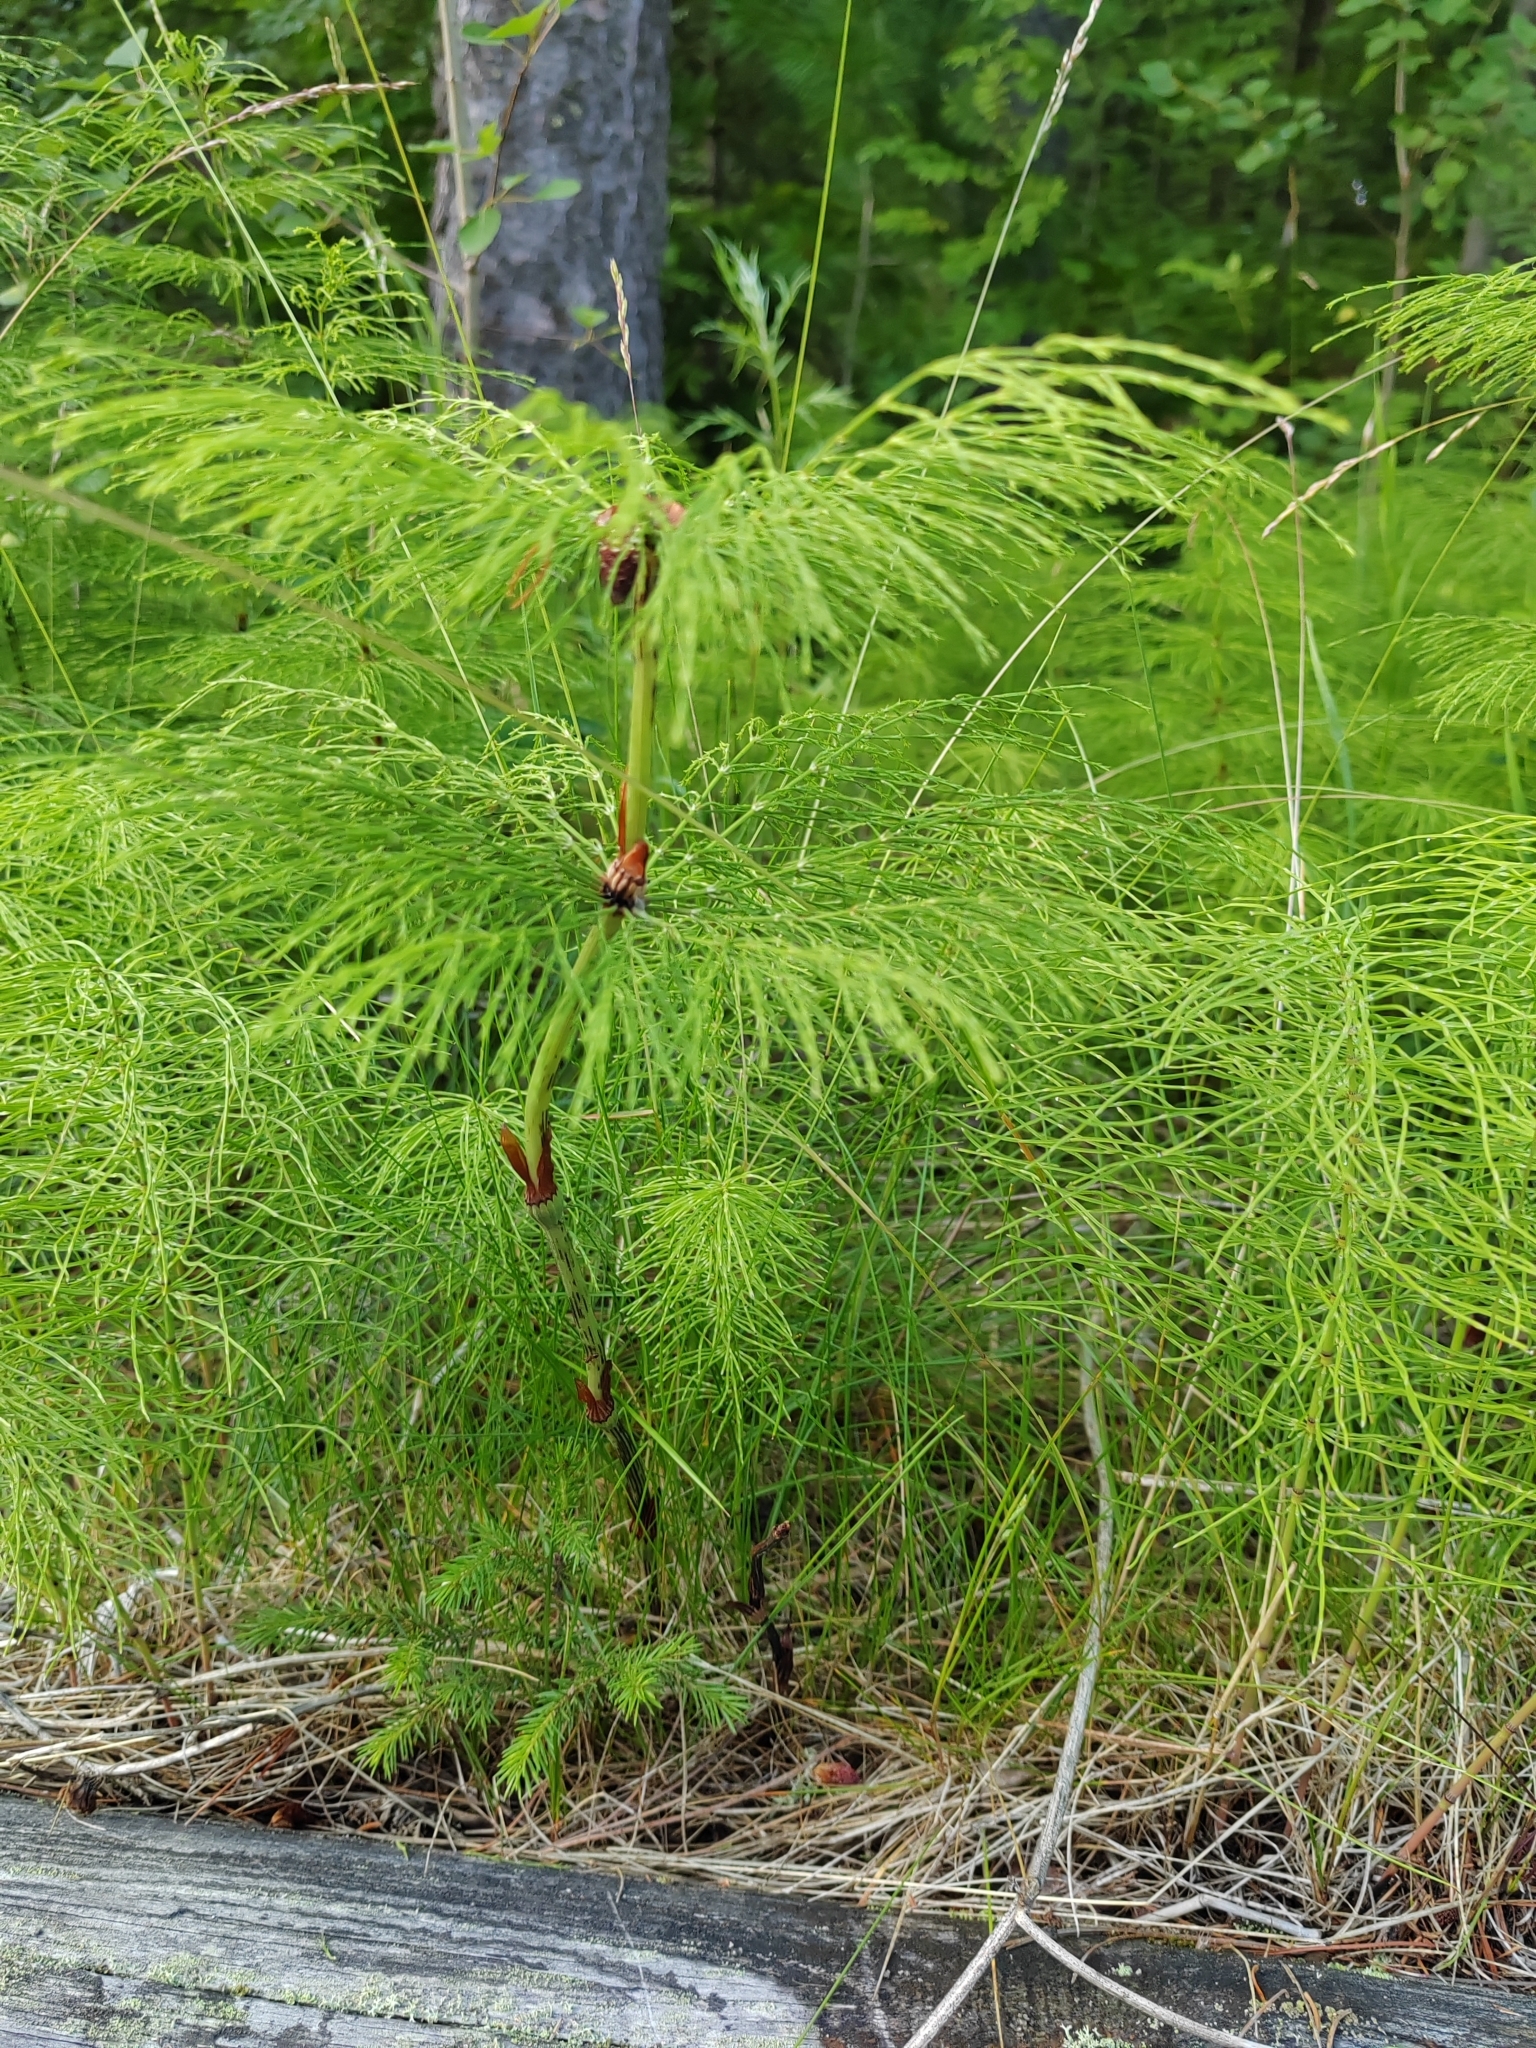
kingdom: Plantae
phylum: Tracheophyta
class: Polypodiopsida
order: Equisetales
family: Equisetaceae
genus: Equisetum
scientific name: Equisetum sylvaticum
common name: Wood horsetail
